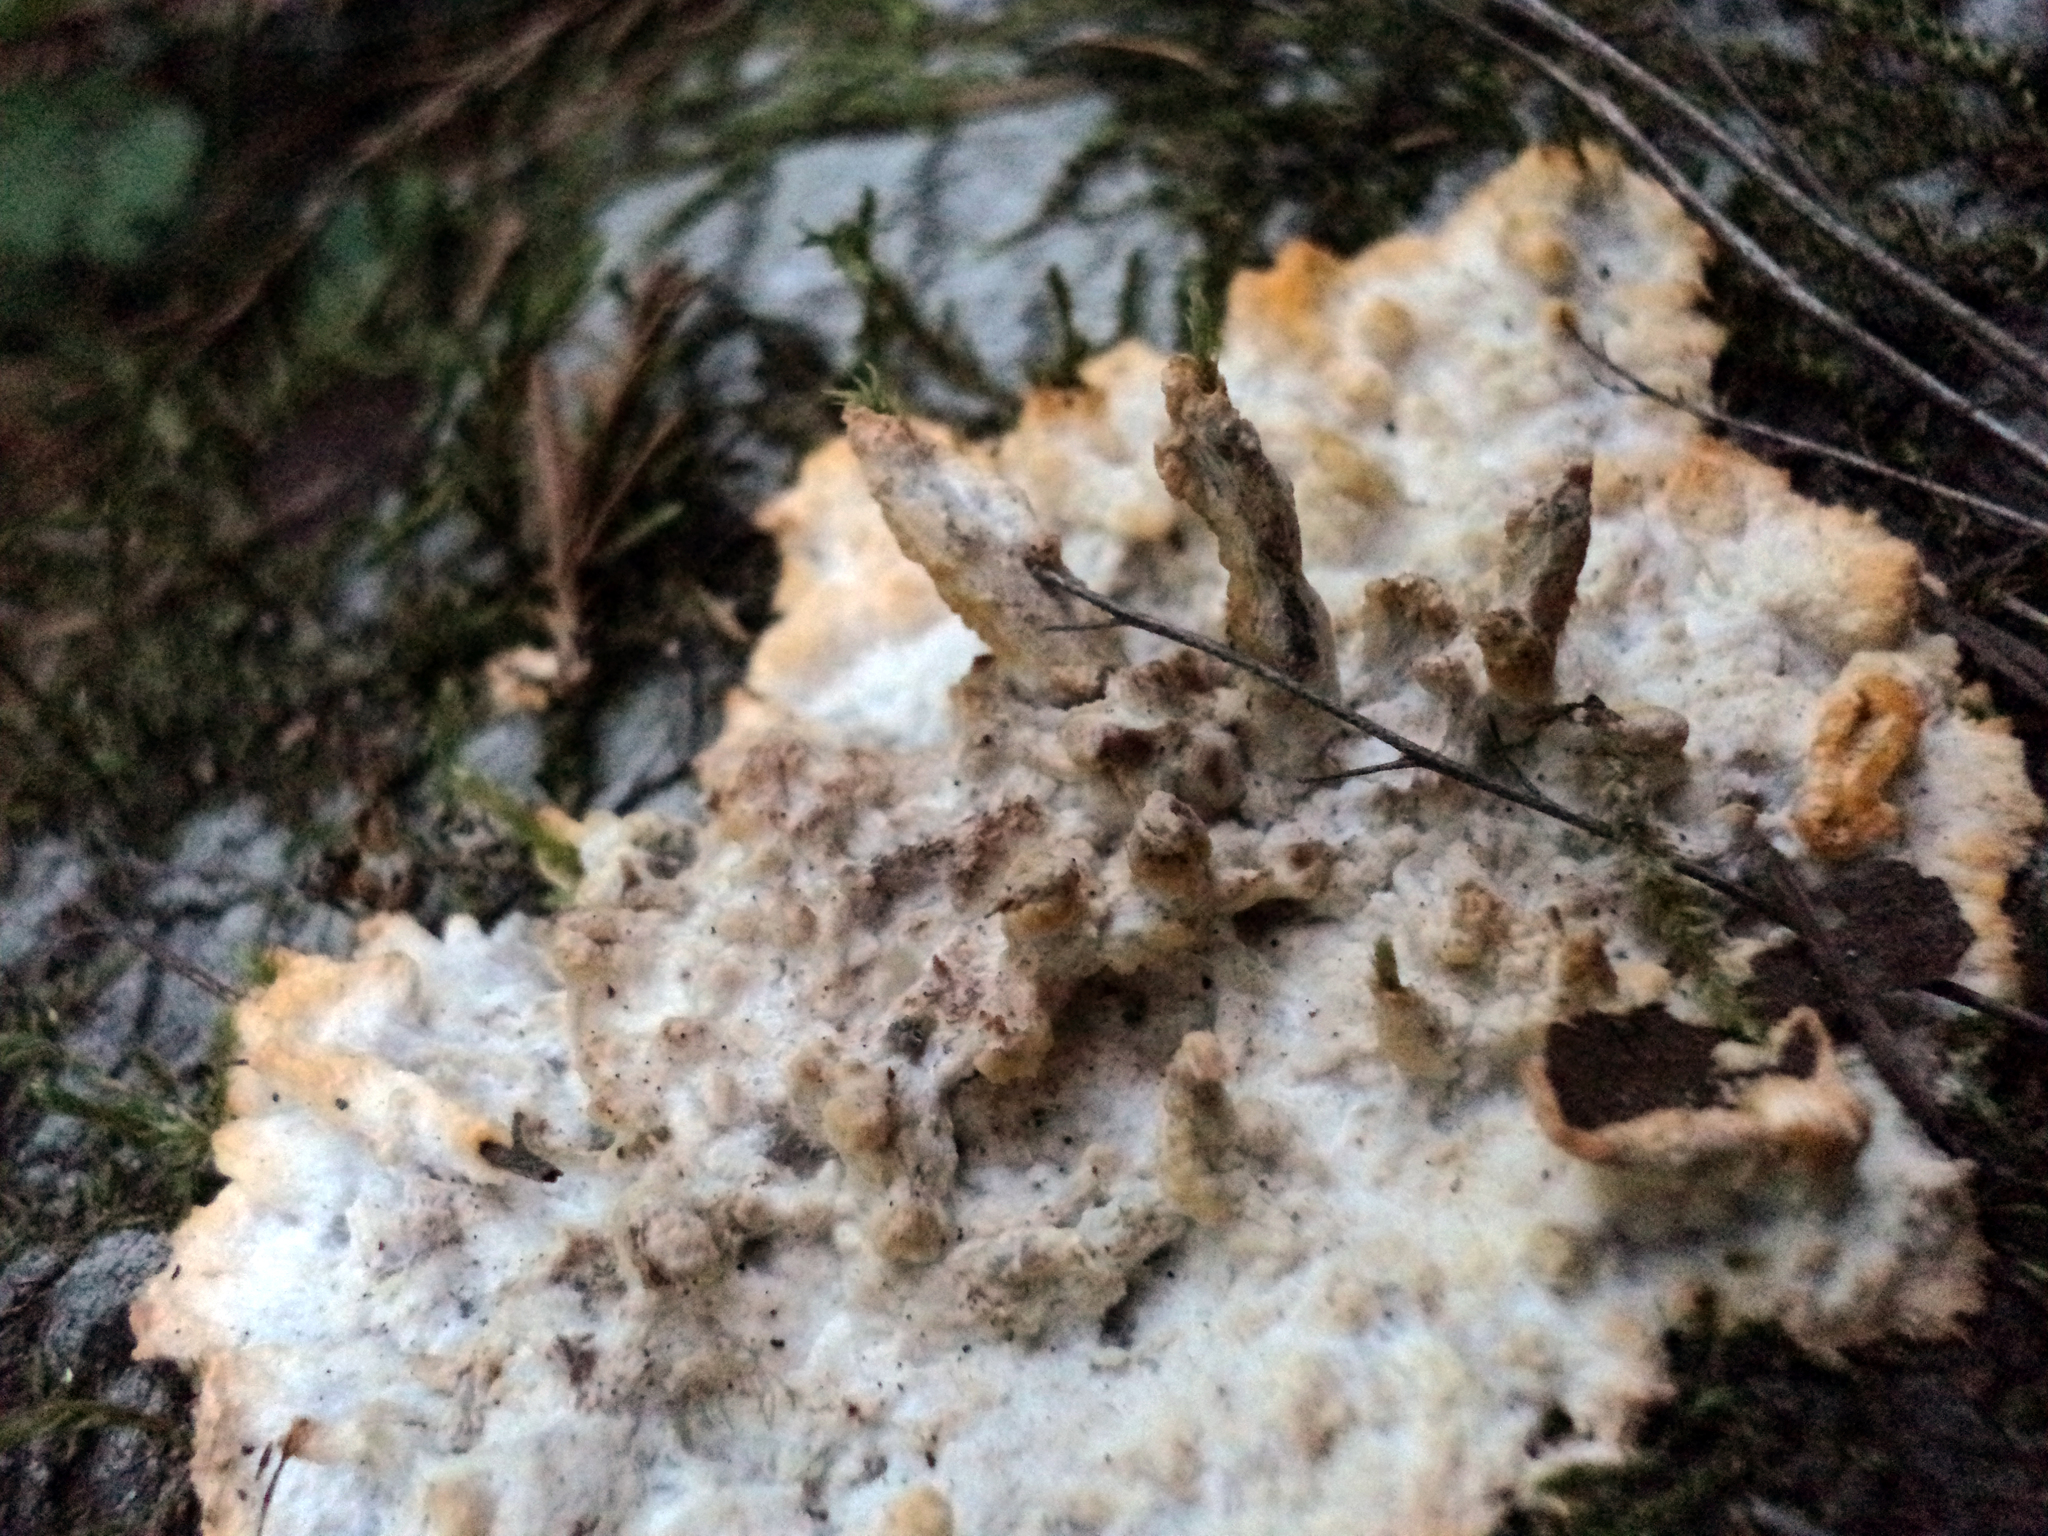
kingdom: Fungi
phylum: Basidiomycota
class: Agaricomycetes
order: Polyporales
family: Meruliaceae
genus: Phlebia
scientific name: Phlebia radiata
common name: Wrinkled crust
